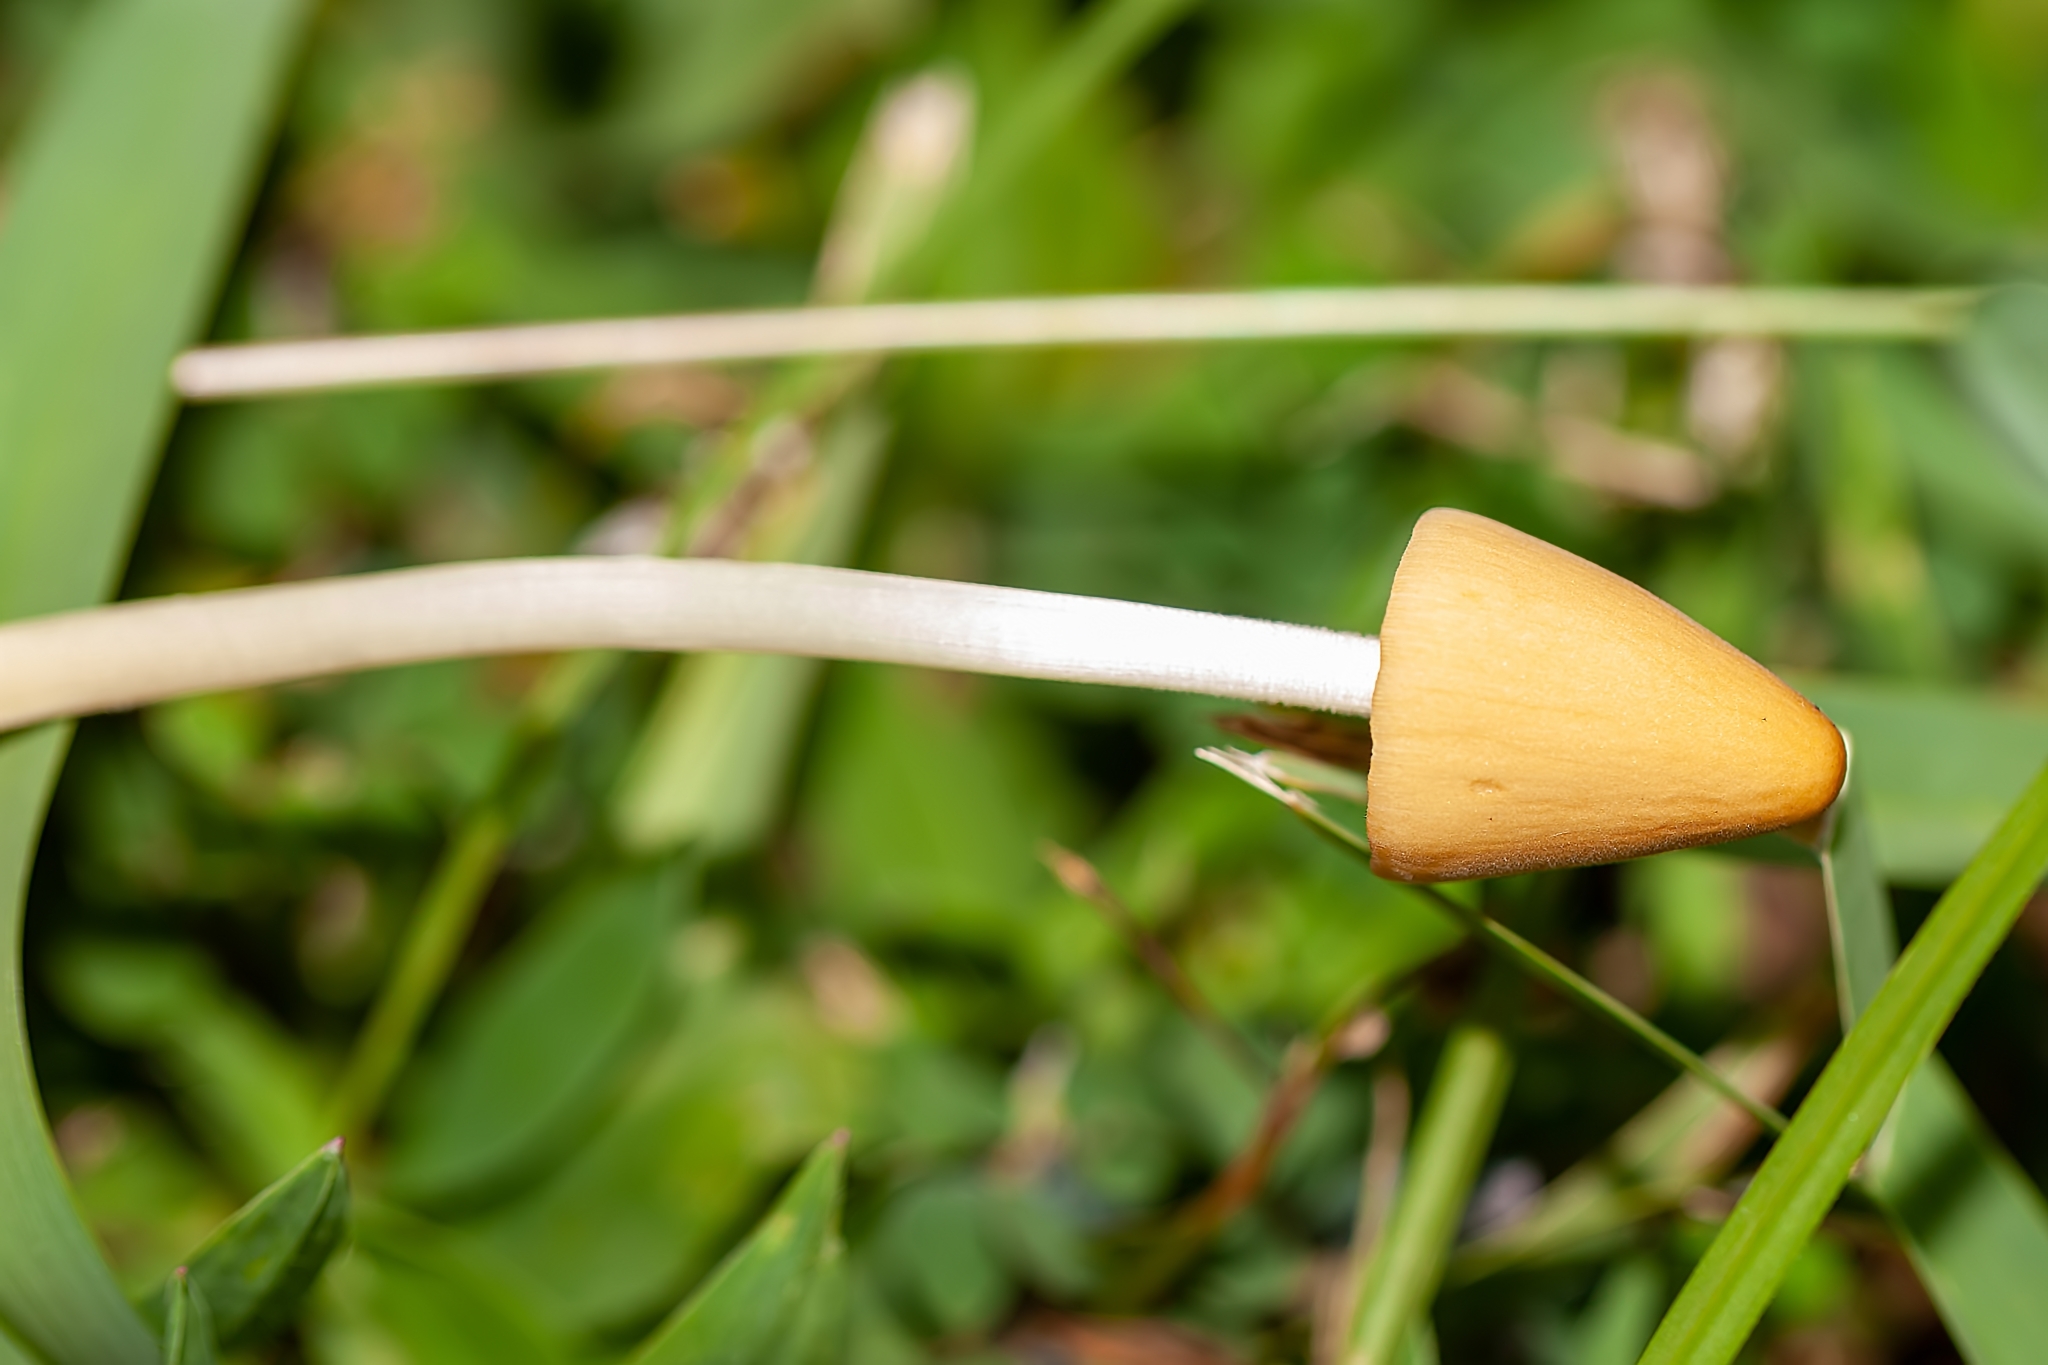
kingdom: Fungi
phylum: Basidiomycota
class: Agaricomycetes
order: Agaricales
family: Bolbitiaceae
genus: Conocybe
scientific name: Conocybe apala
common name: Milky conecap
